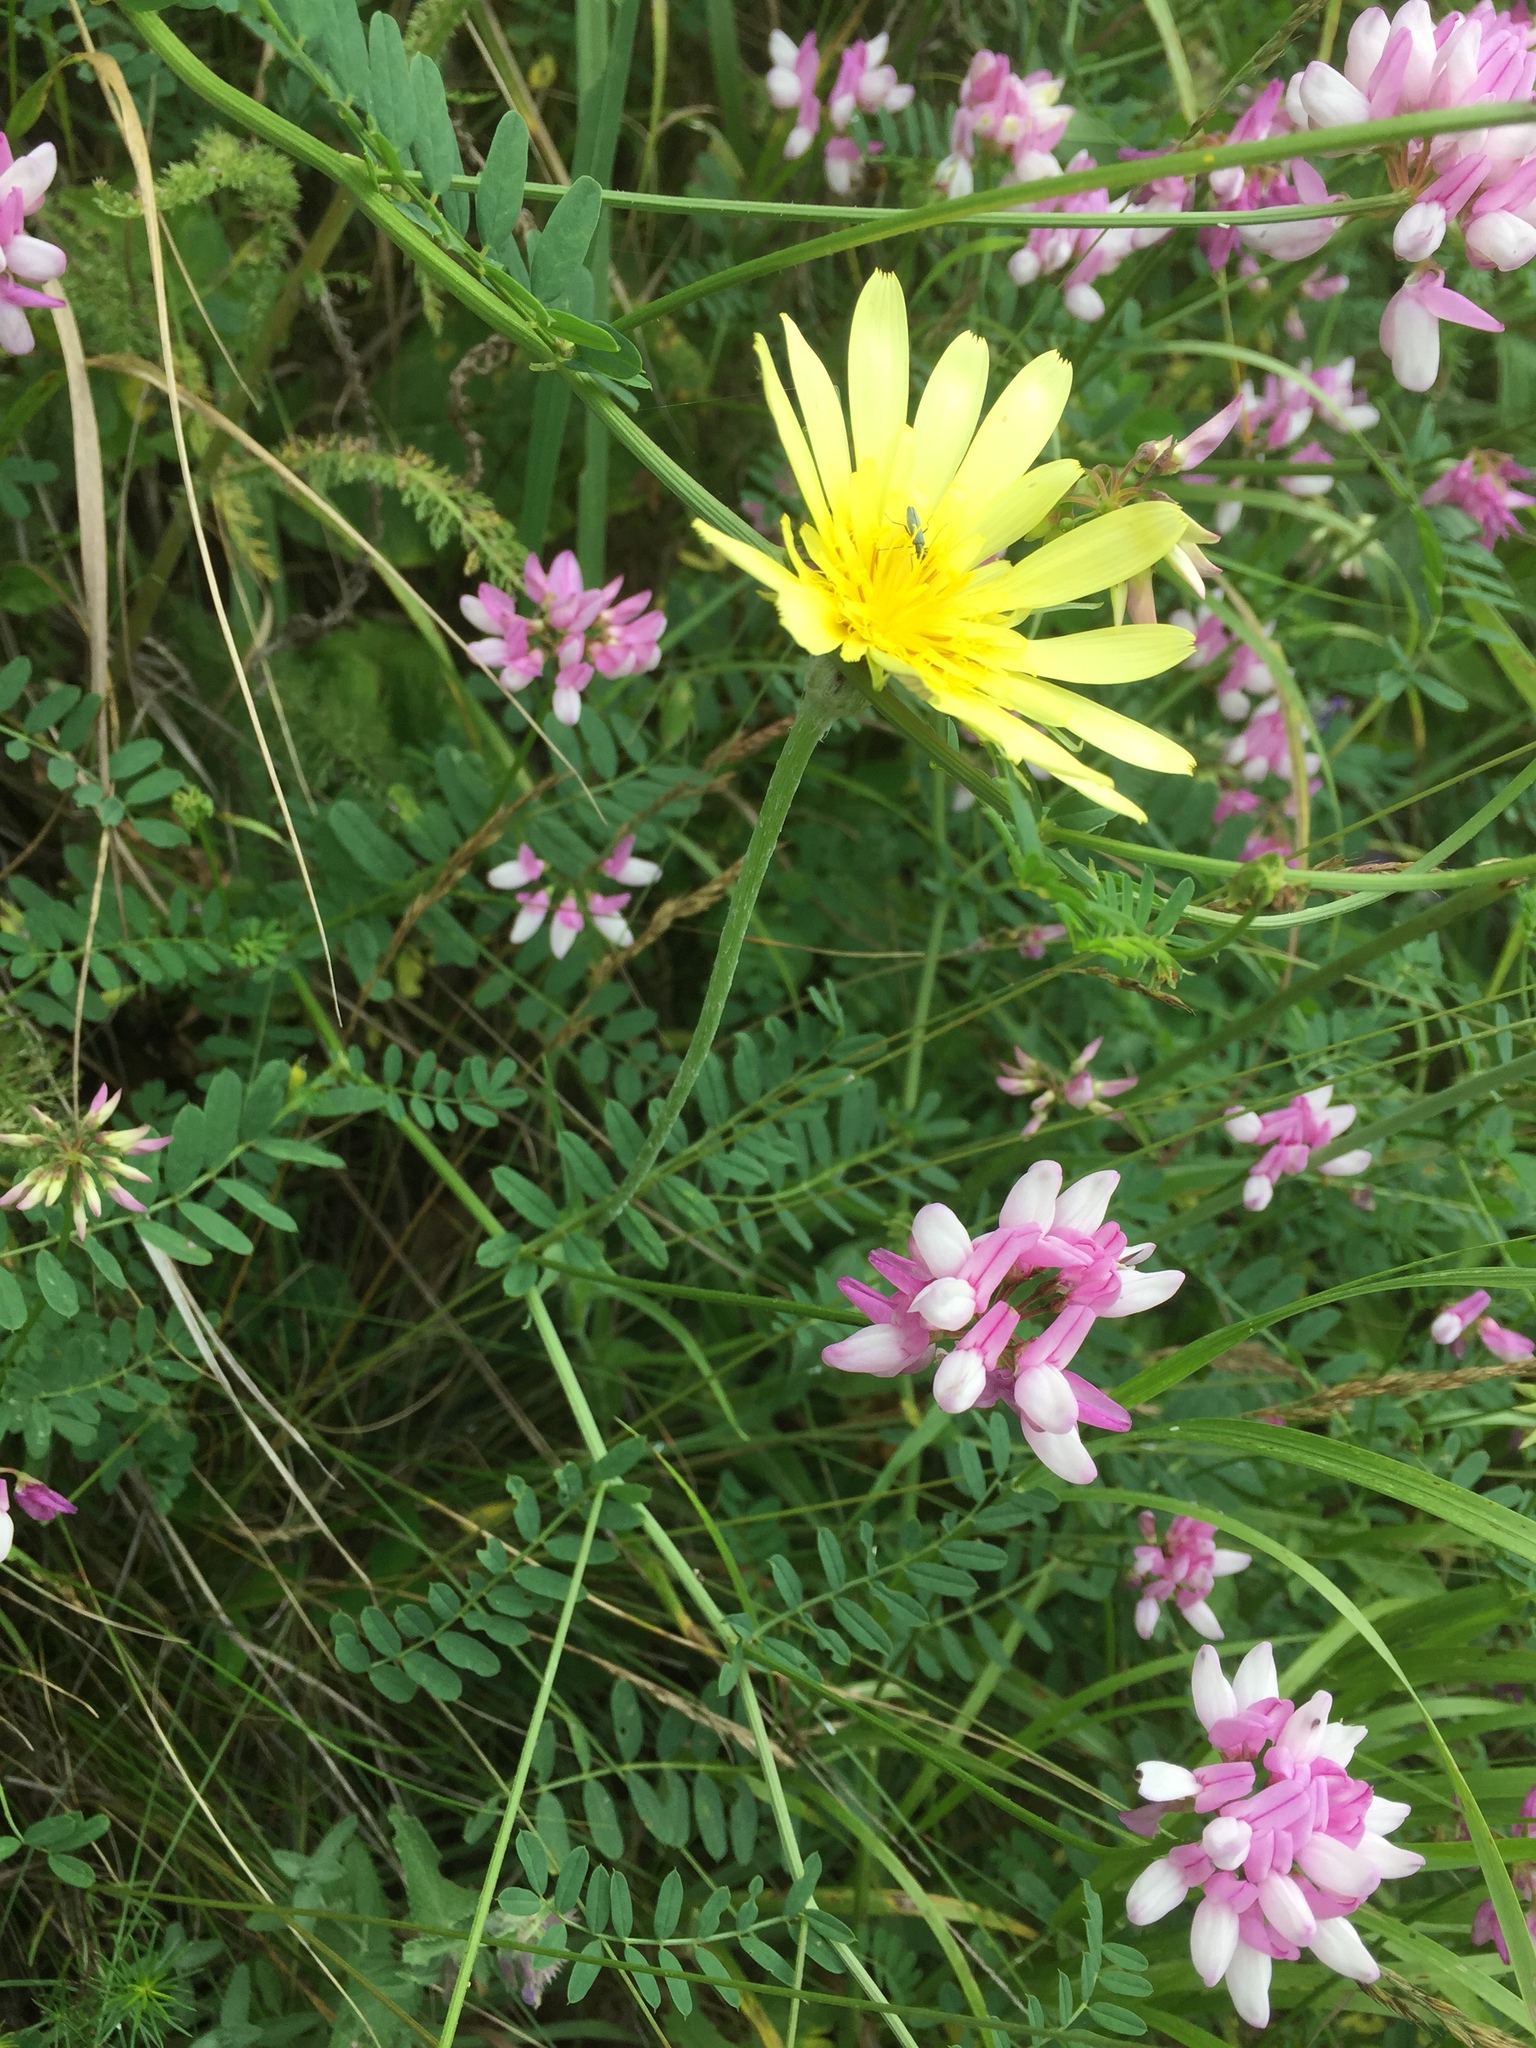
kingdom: Plantae
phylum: Tracheophyta
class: Magnoliopsida
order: Fabales
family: Fabaceae
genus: Coronilla
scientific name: Coronilla varia
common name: Crownvetch
